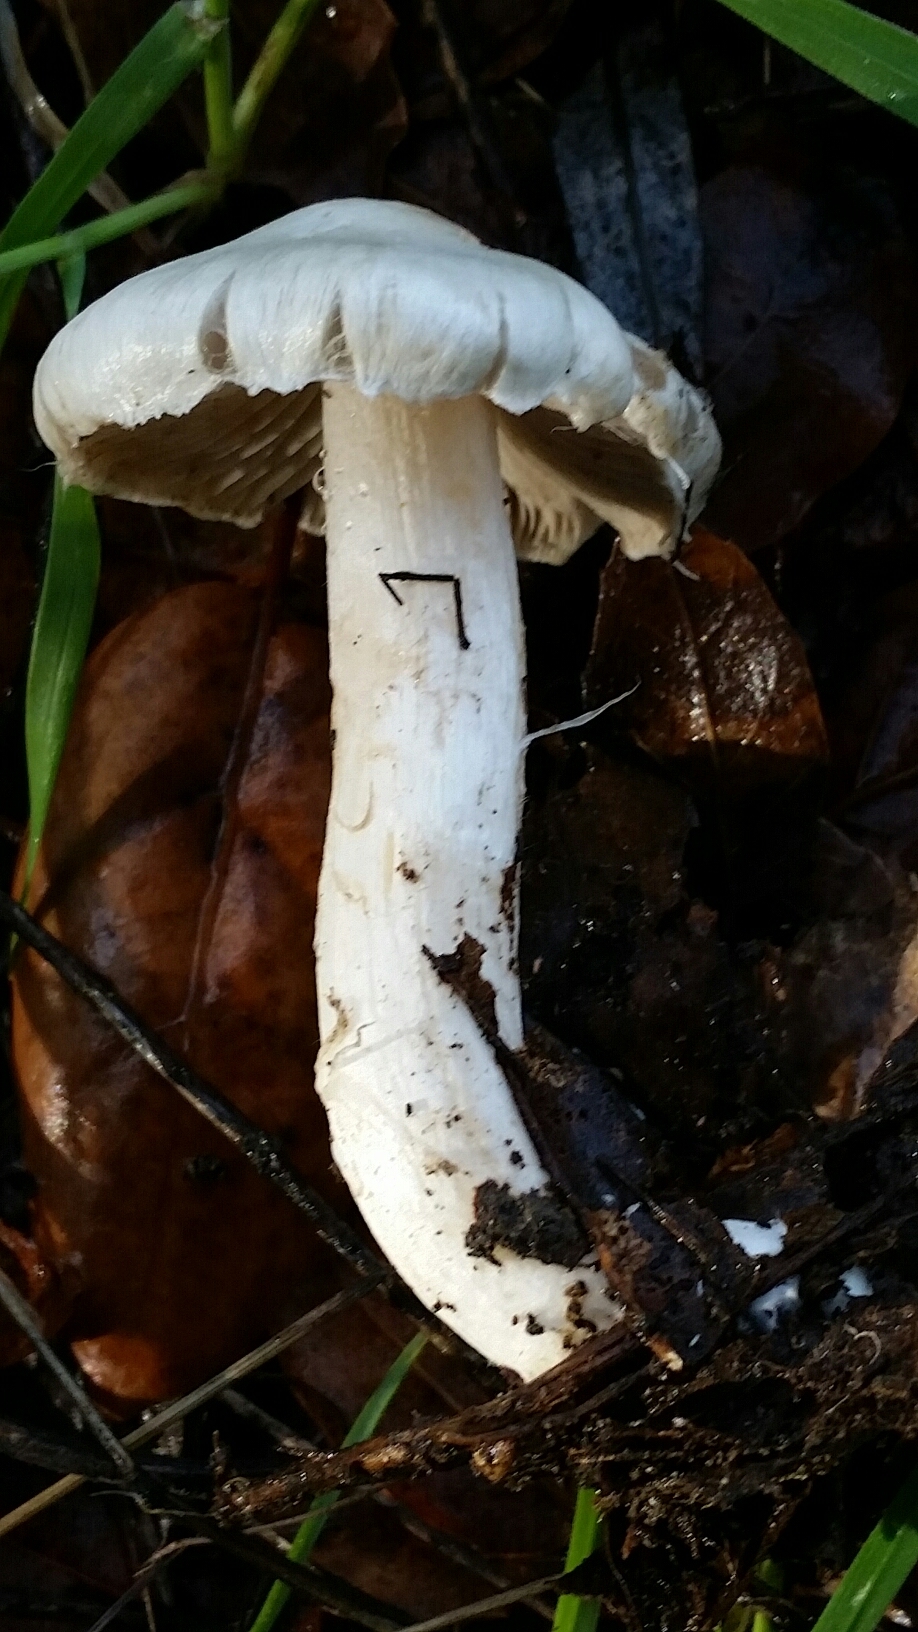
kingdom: Fungi
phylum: Basidiomycota
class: Agaricomycetes
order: Agaricales
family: Inocybaceae
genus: Inocybe
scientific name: Inocybe insinuata
